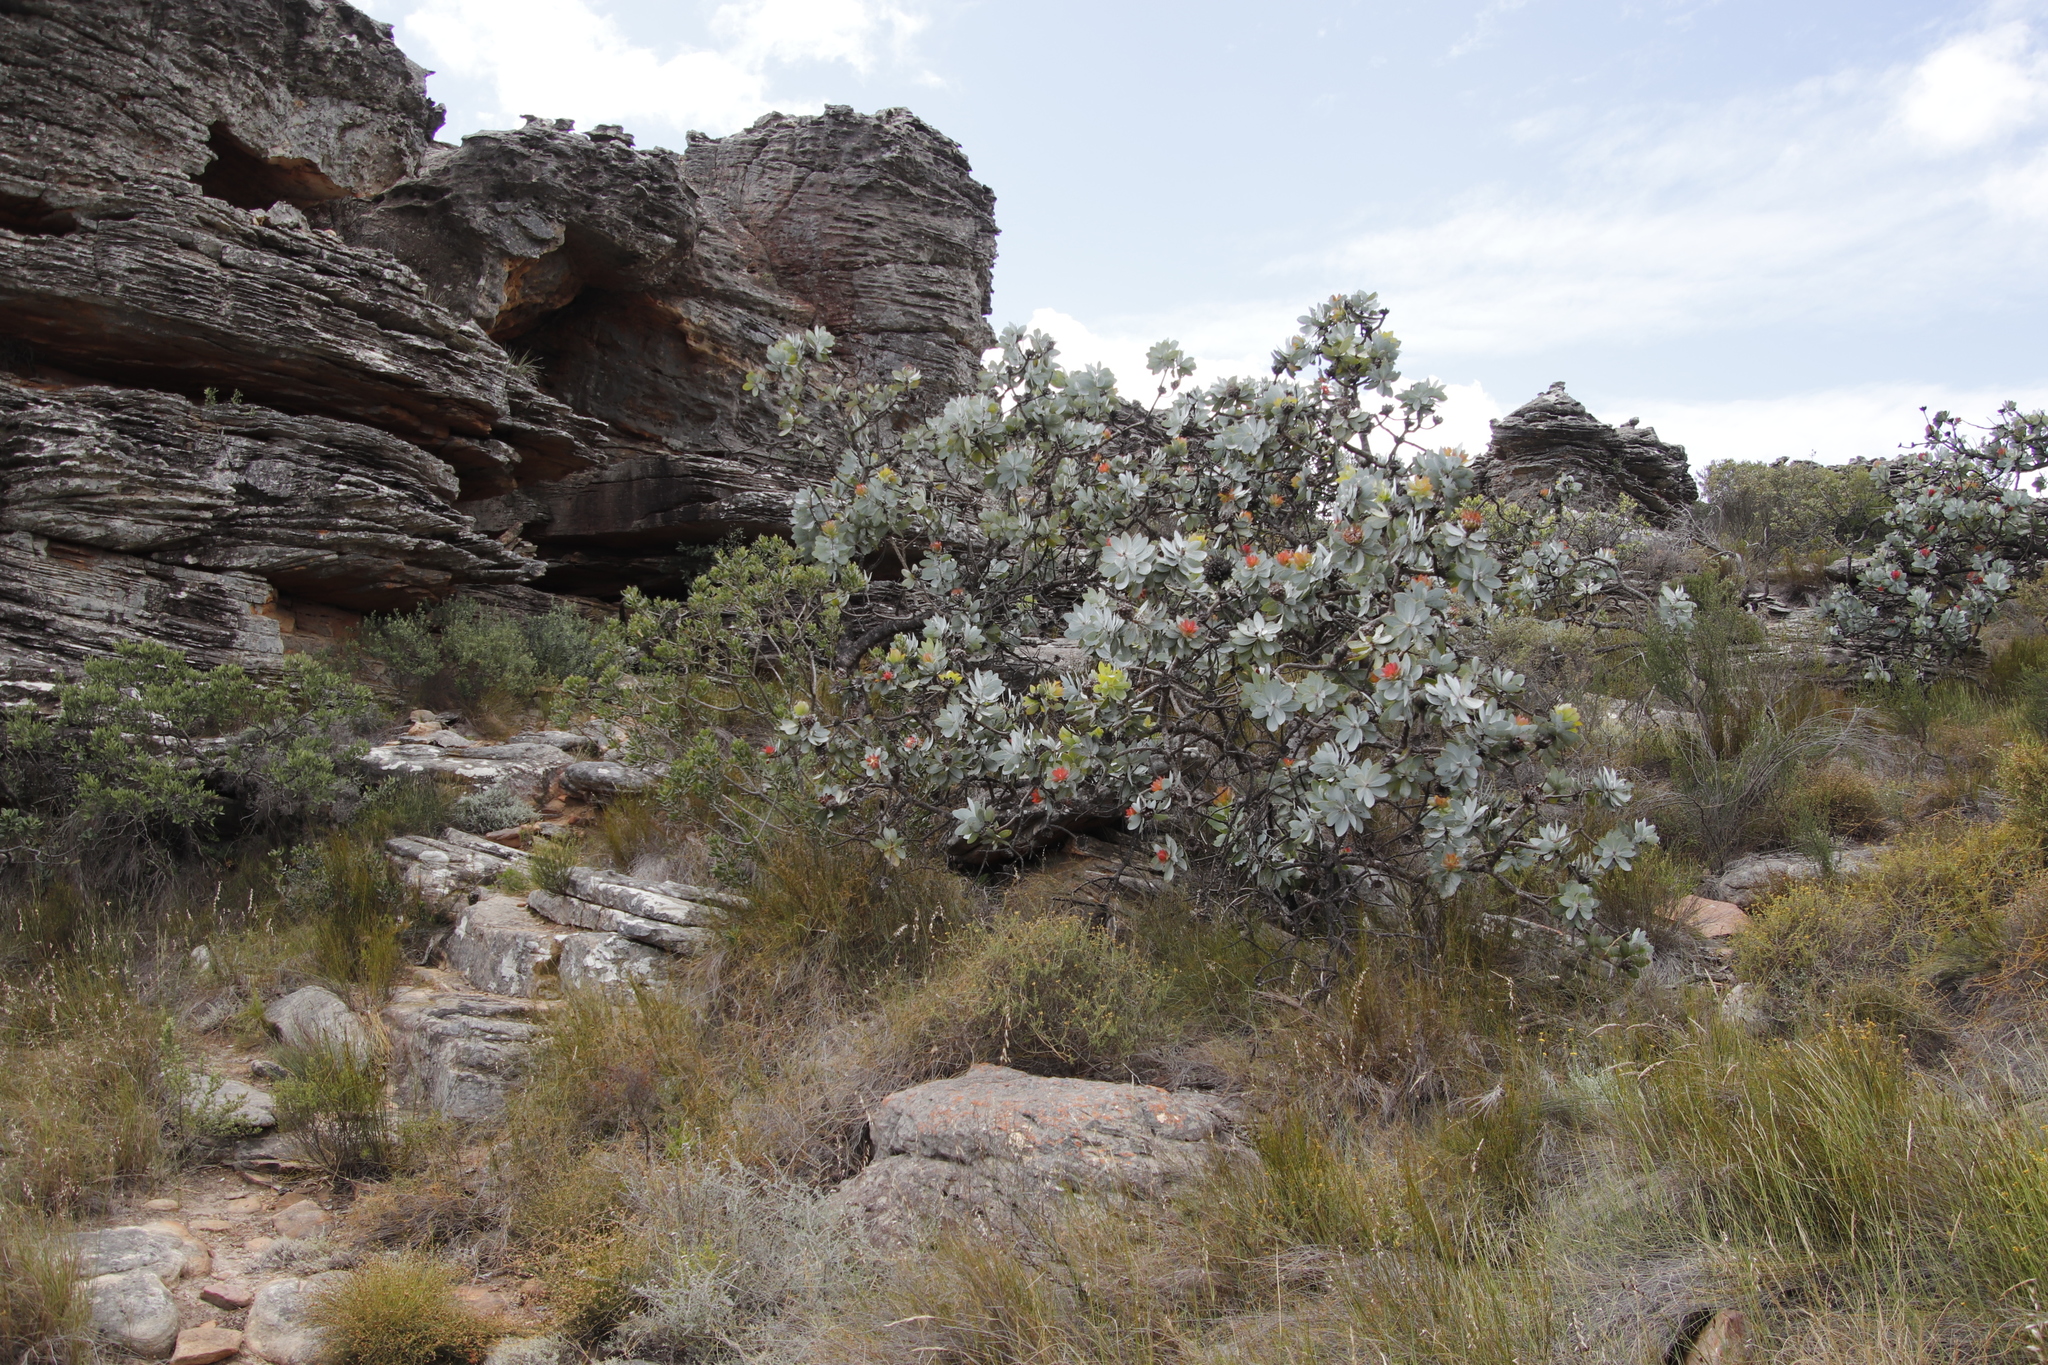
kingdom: Plantae
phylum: Tracheophyta
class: Magnoliopsida
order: Proteales
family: Proteaceae
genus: Protea
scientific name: Protea nitida
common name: Tree protea
